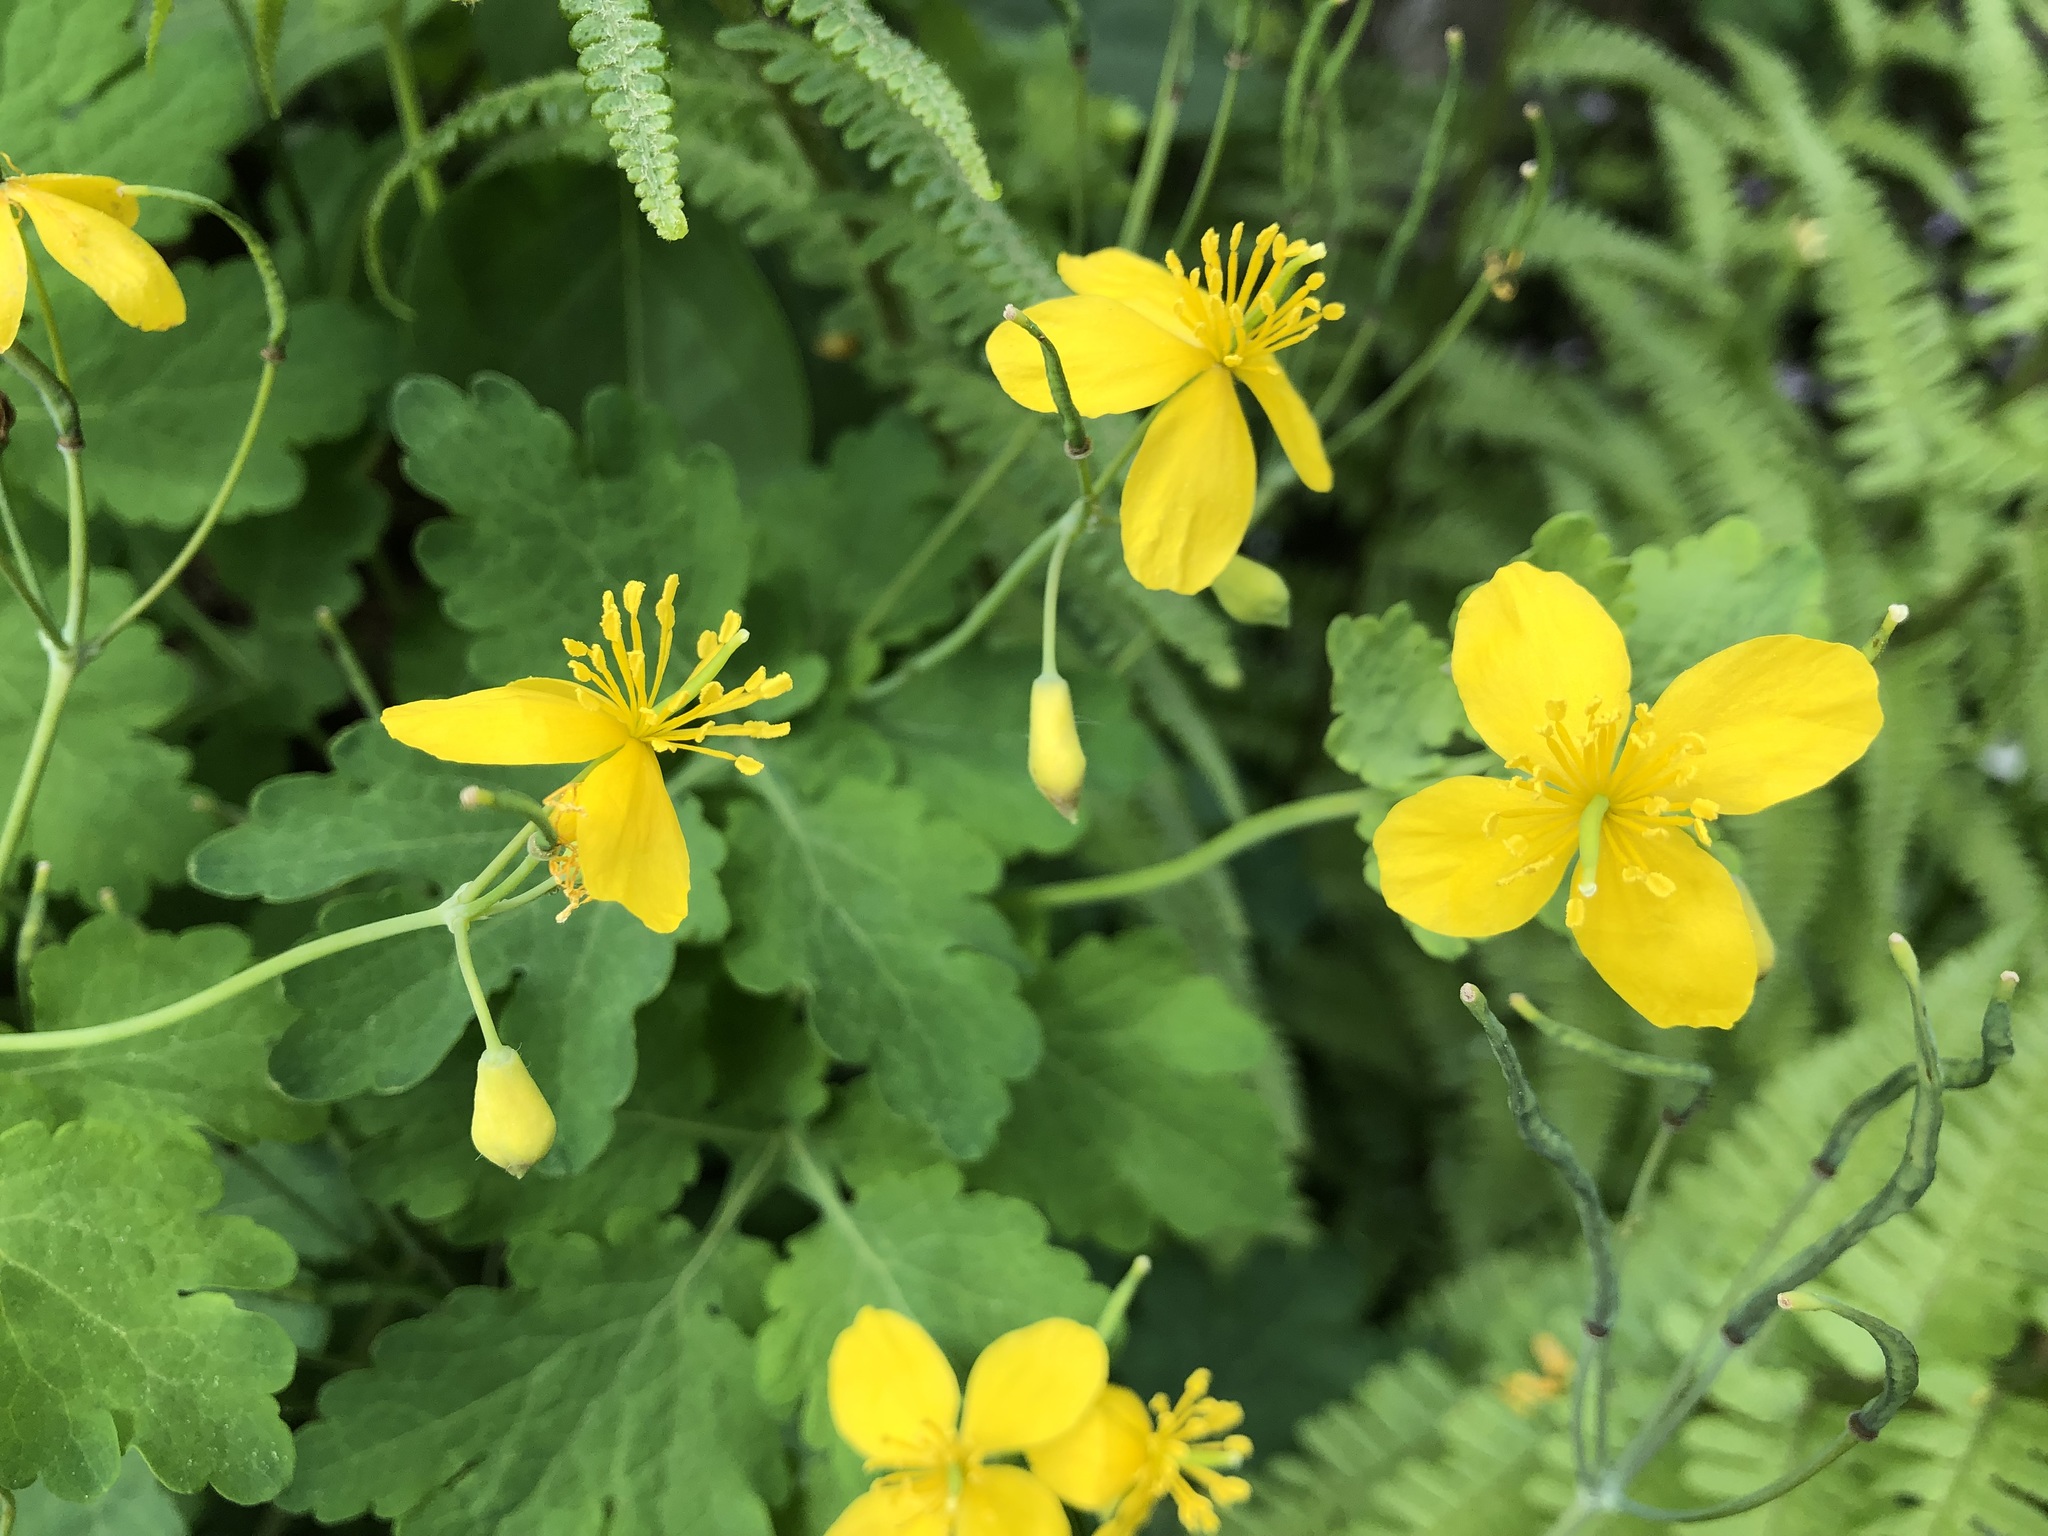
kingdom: Plantae
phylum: Tracheophyta
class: Magnoliopsida
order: Ranunculales
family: Papaveraceae
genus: Chelidonium
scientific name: Chelidonium majus
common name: Greater celandine
